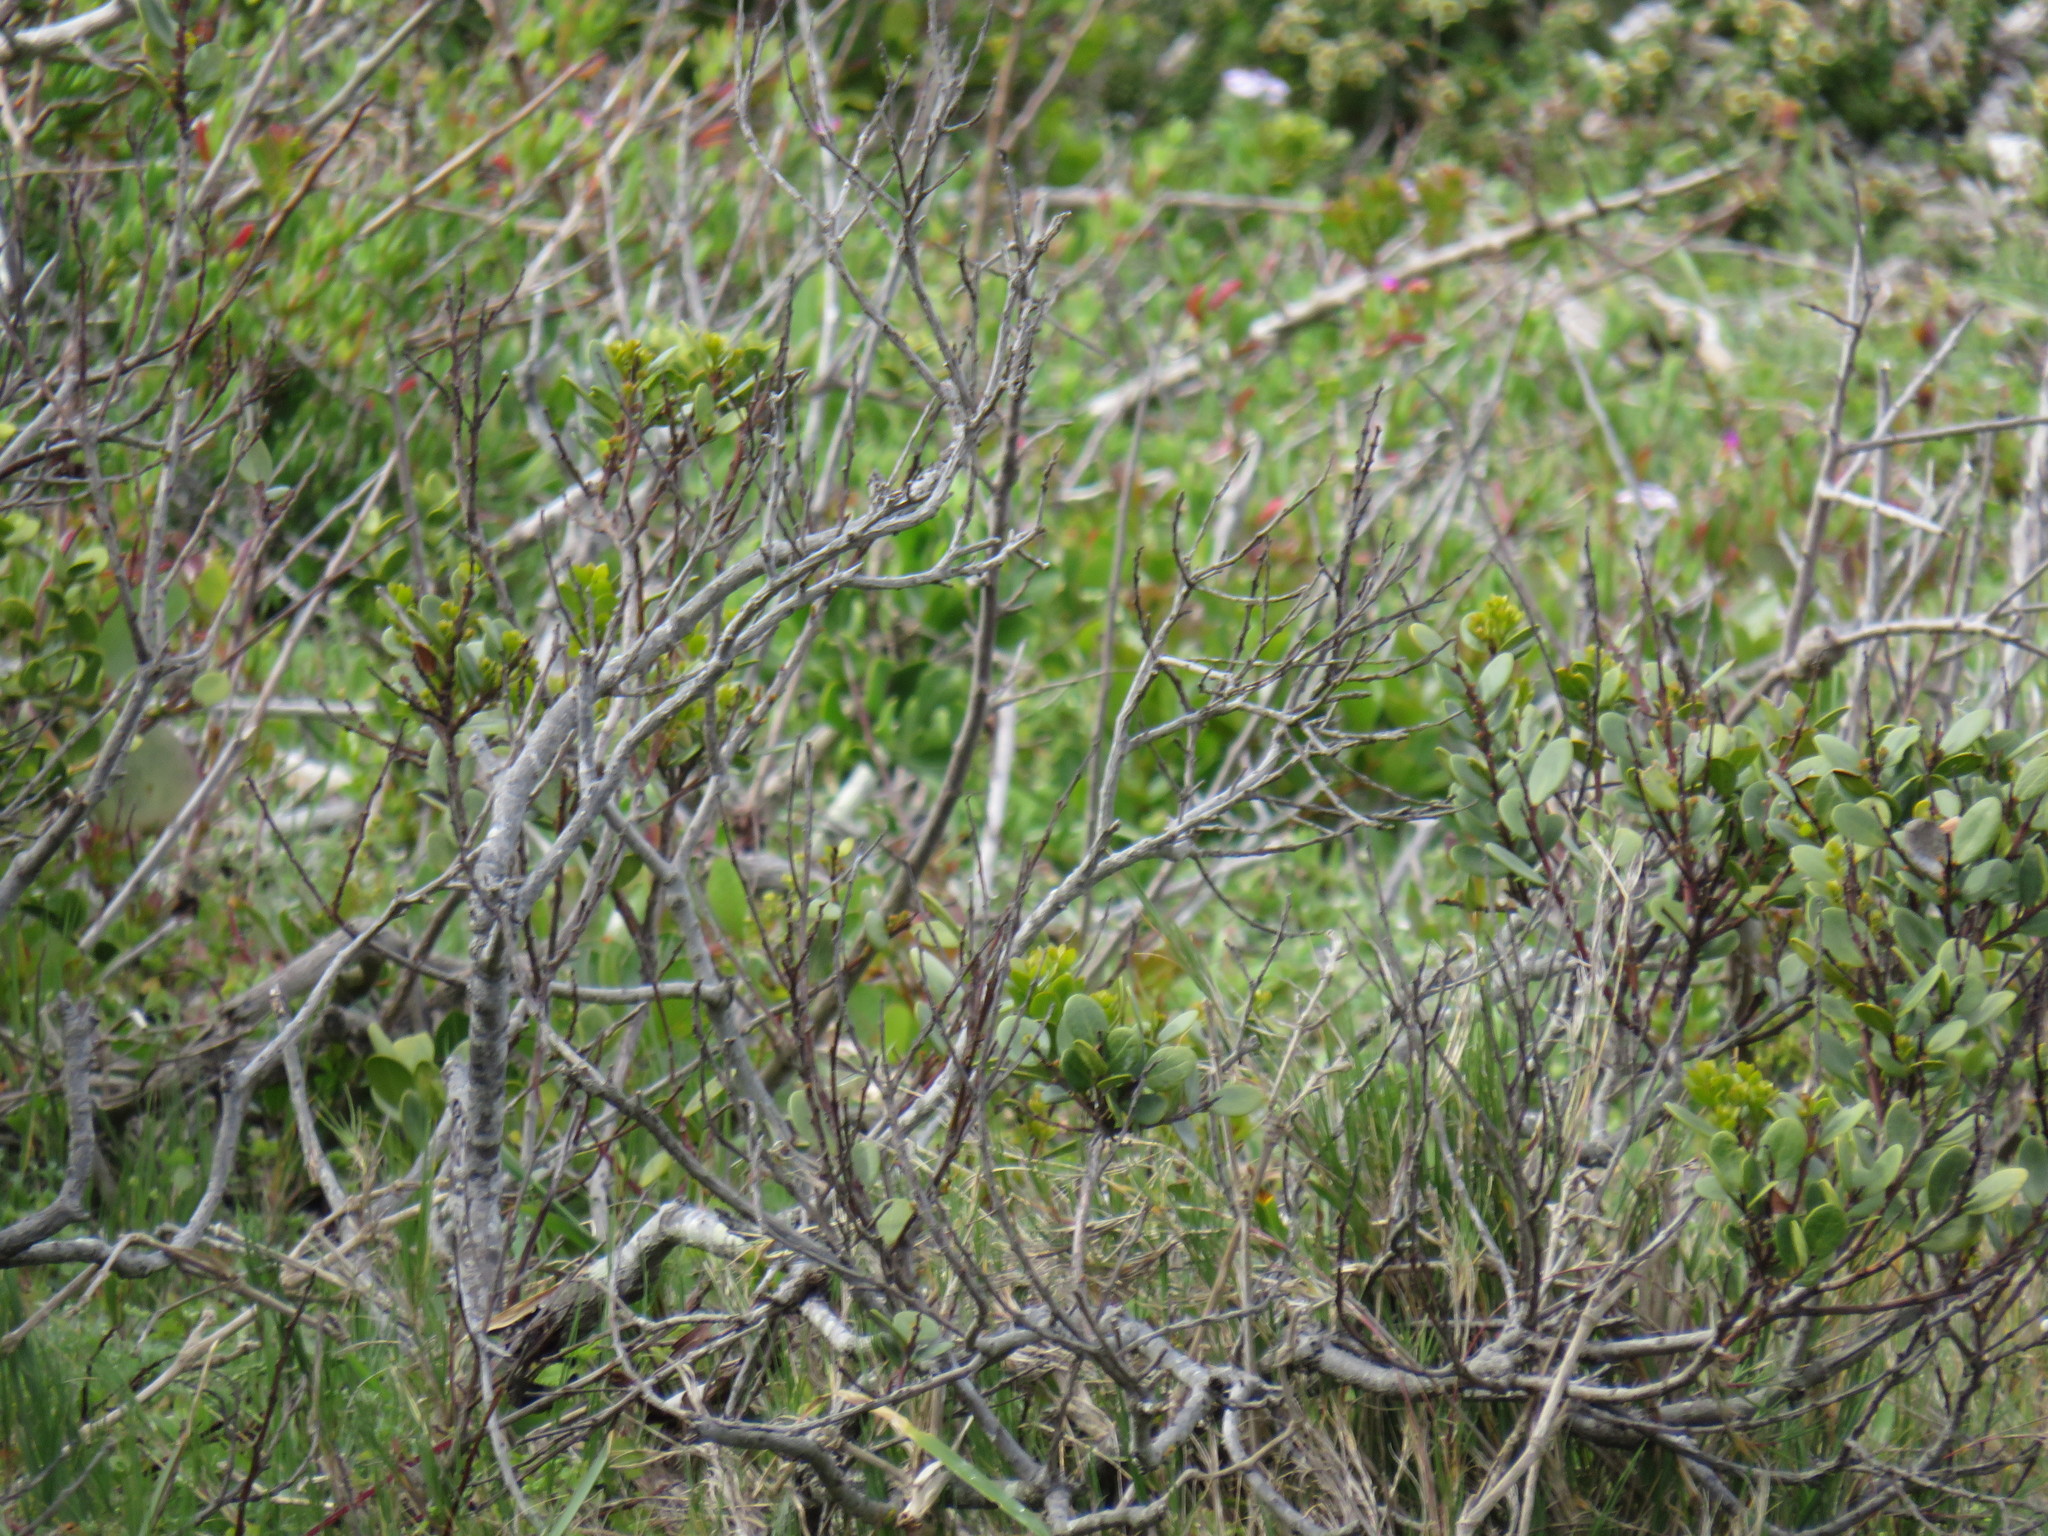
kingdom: Plantae
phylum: Tracheophyta
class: Magnoliopsida
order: Ericales
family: Ebenaceae
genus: Euclea
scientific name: Euclea racemosa
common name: Dune guarri
